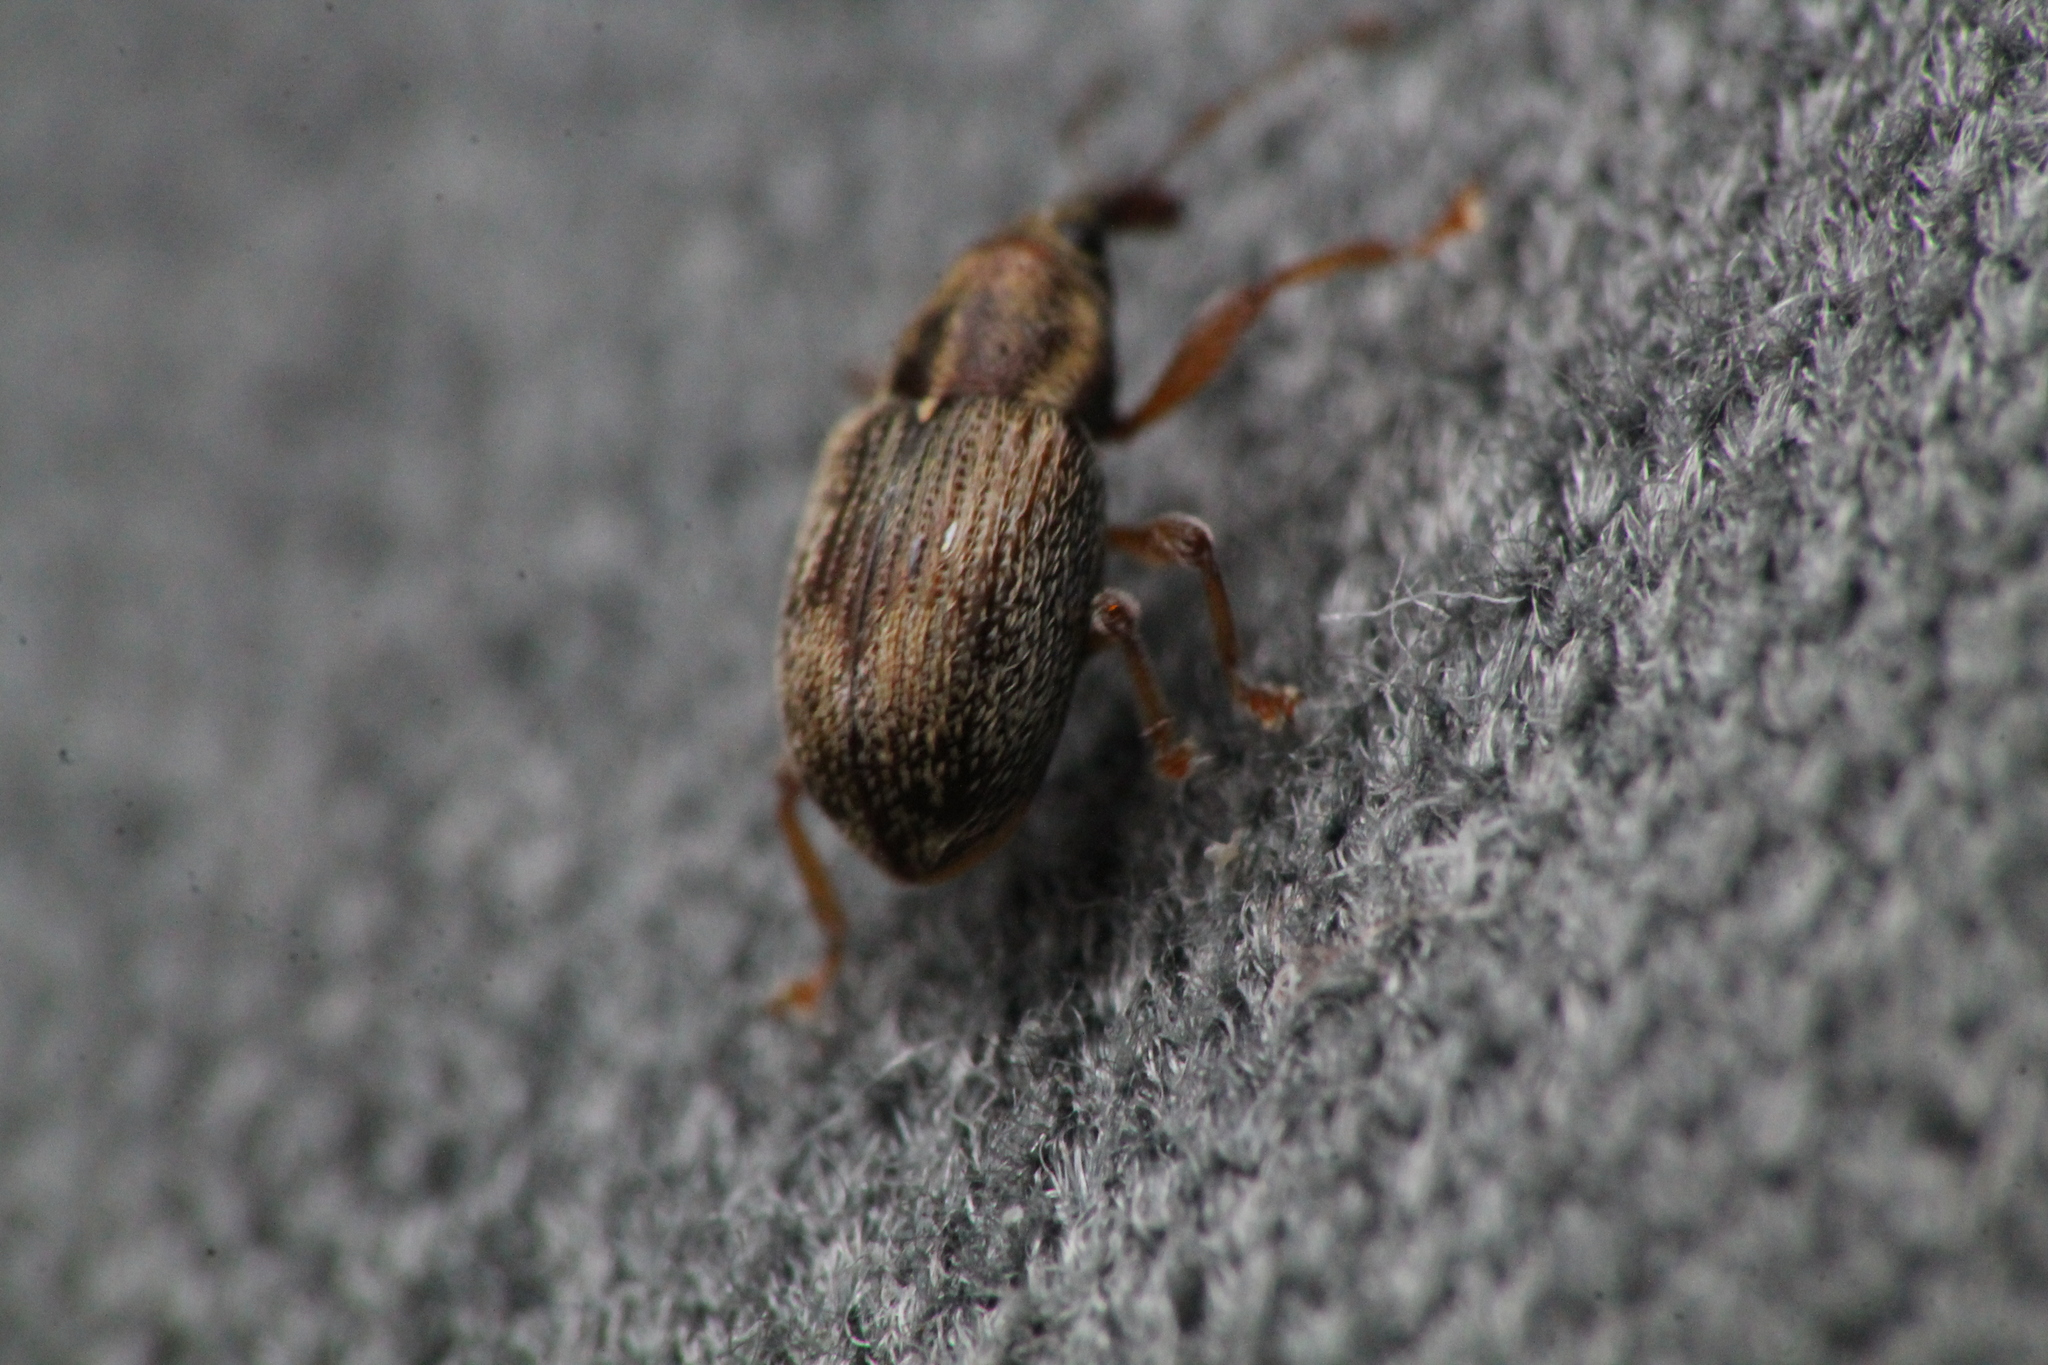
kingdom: Animalia
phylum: Arthropoda
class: Insecta
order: Coleoptera
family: Curculionidae
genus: Neomycta
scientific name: Neomycta rubida
